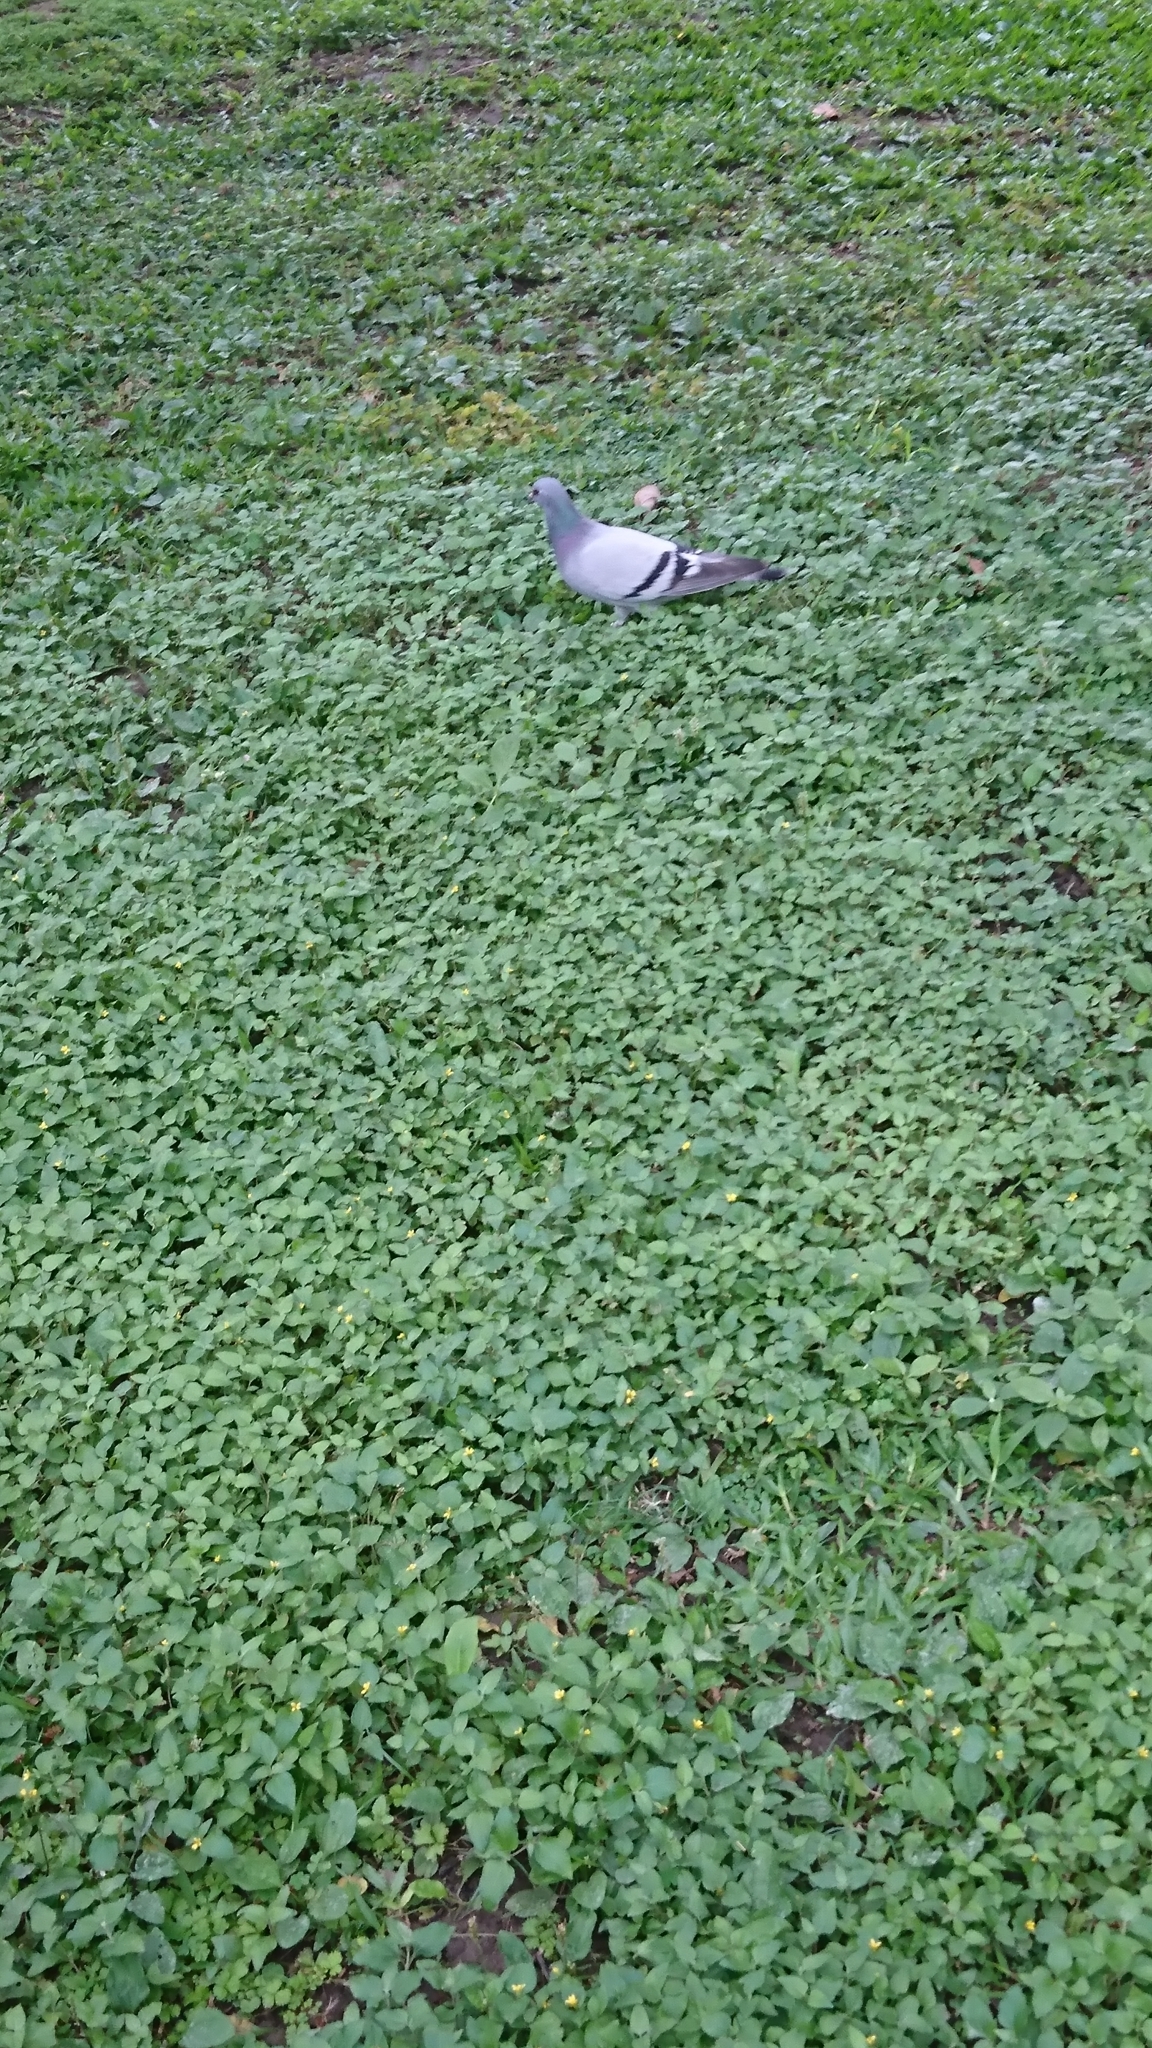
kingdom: Animalia
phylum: Chordata
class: Aves
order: Columbiformes
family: Columbidae
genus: Columba
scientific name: Columba livia
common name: Rock pigeon
